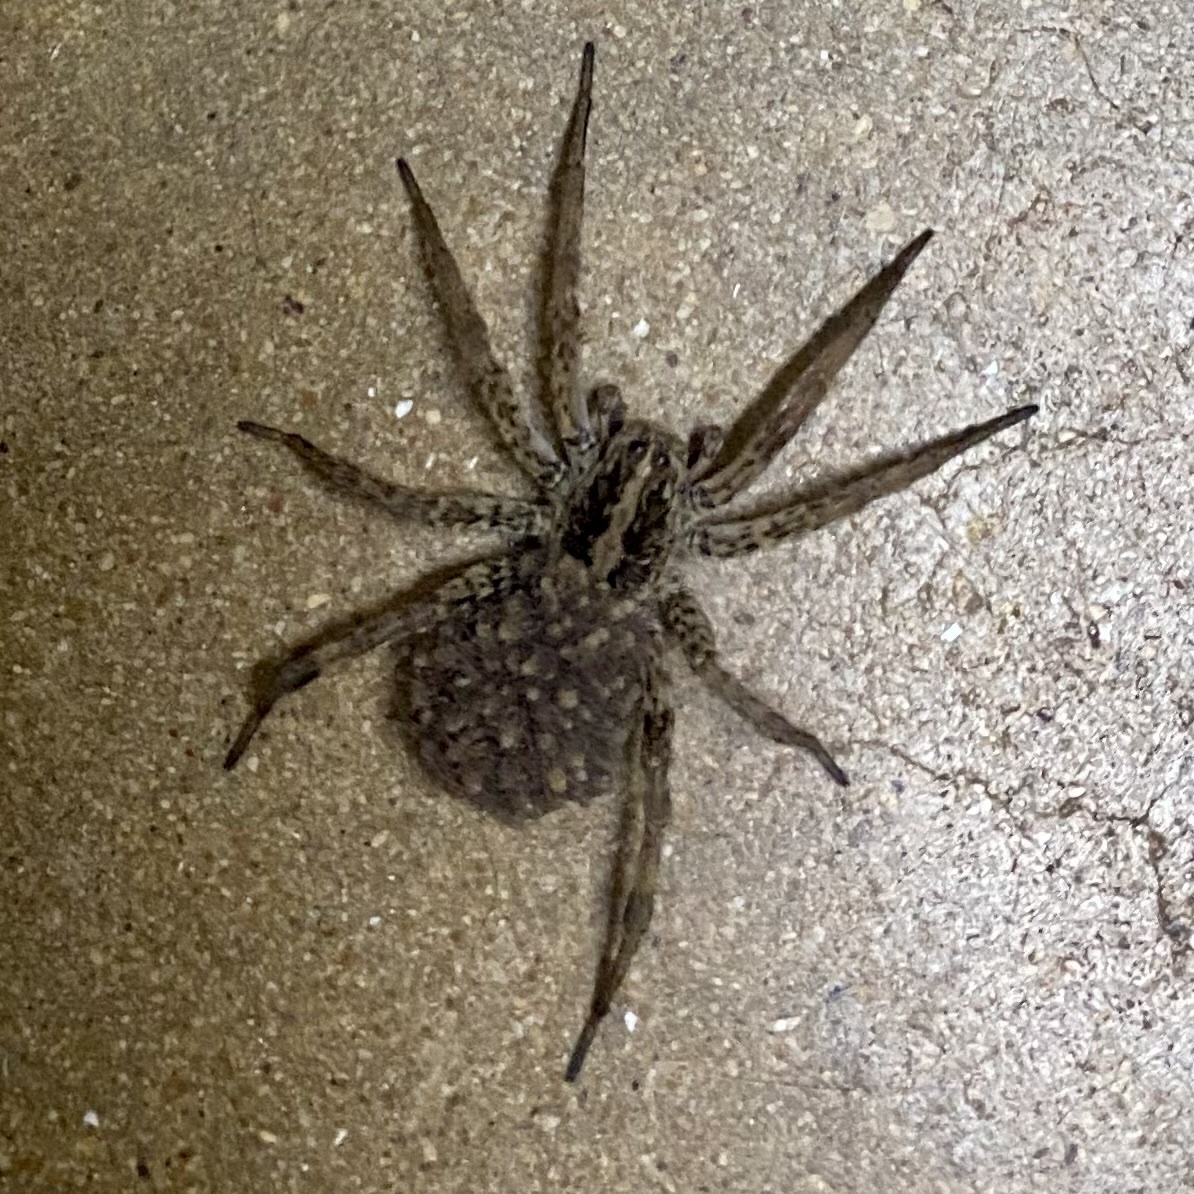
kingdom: Animalia
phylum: Arthropoda
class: Arachnida
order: Araneae
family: Lycosidae
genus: Hogna
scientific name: Hogna antelucana
